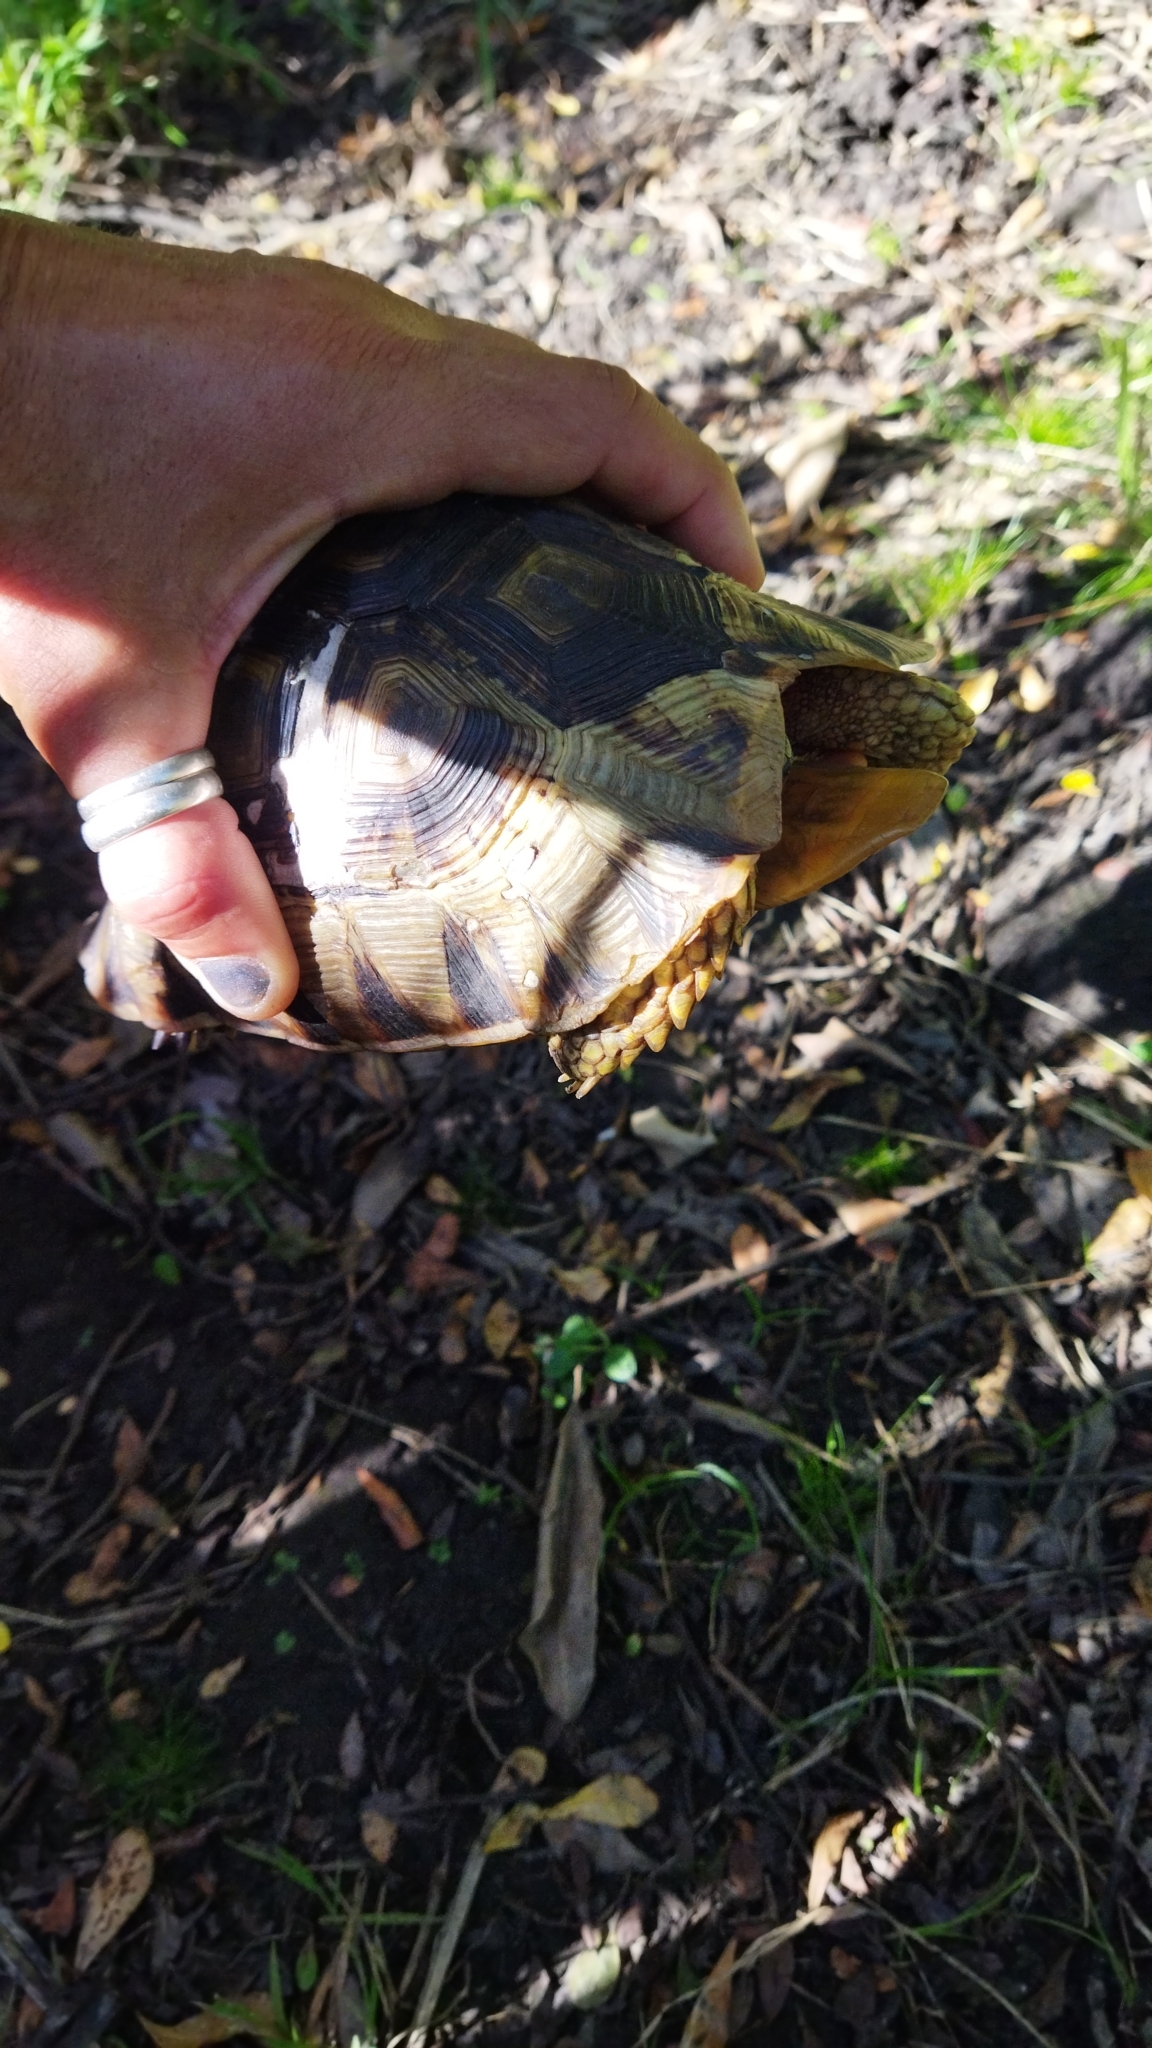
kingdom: Animalia
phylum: Chordata
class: Testudines
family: Testudinidae
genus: Chersina
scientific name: Chersina angulata
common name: South african bowsprit tortoise
